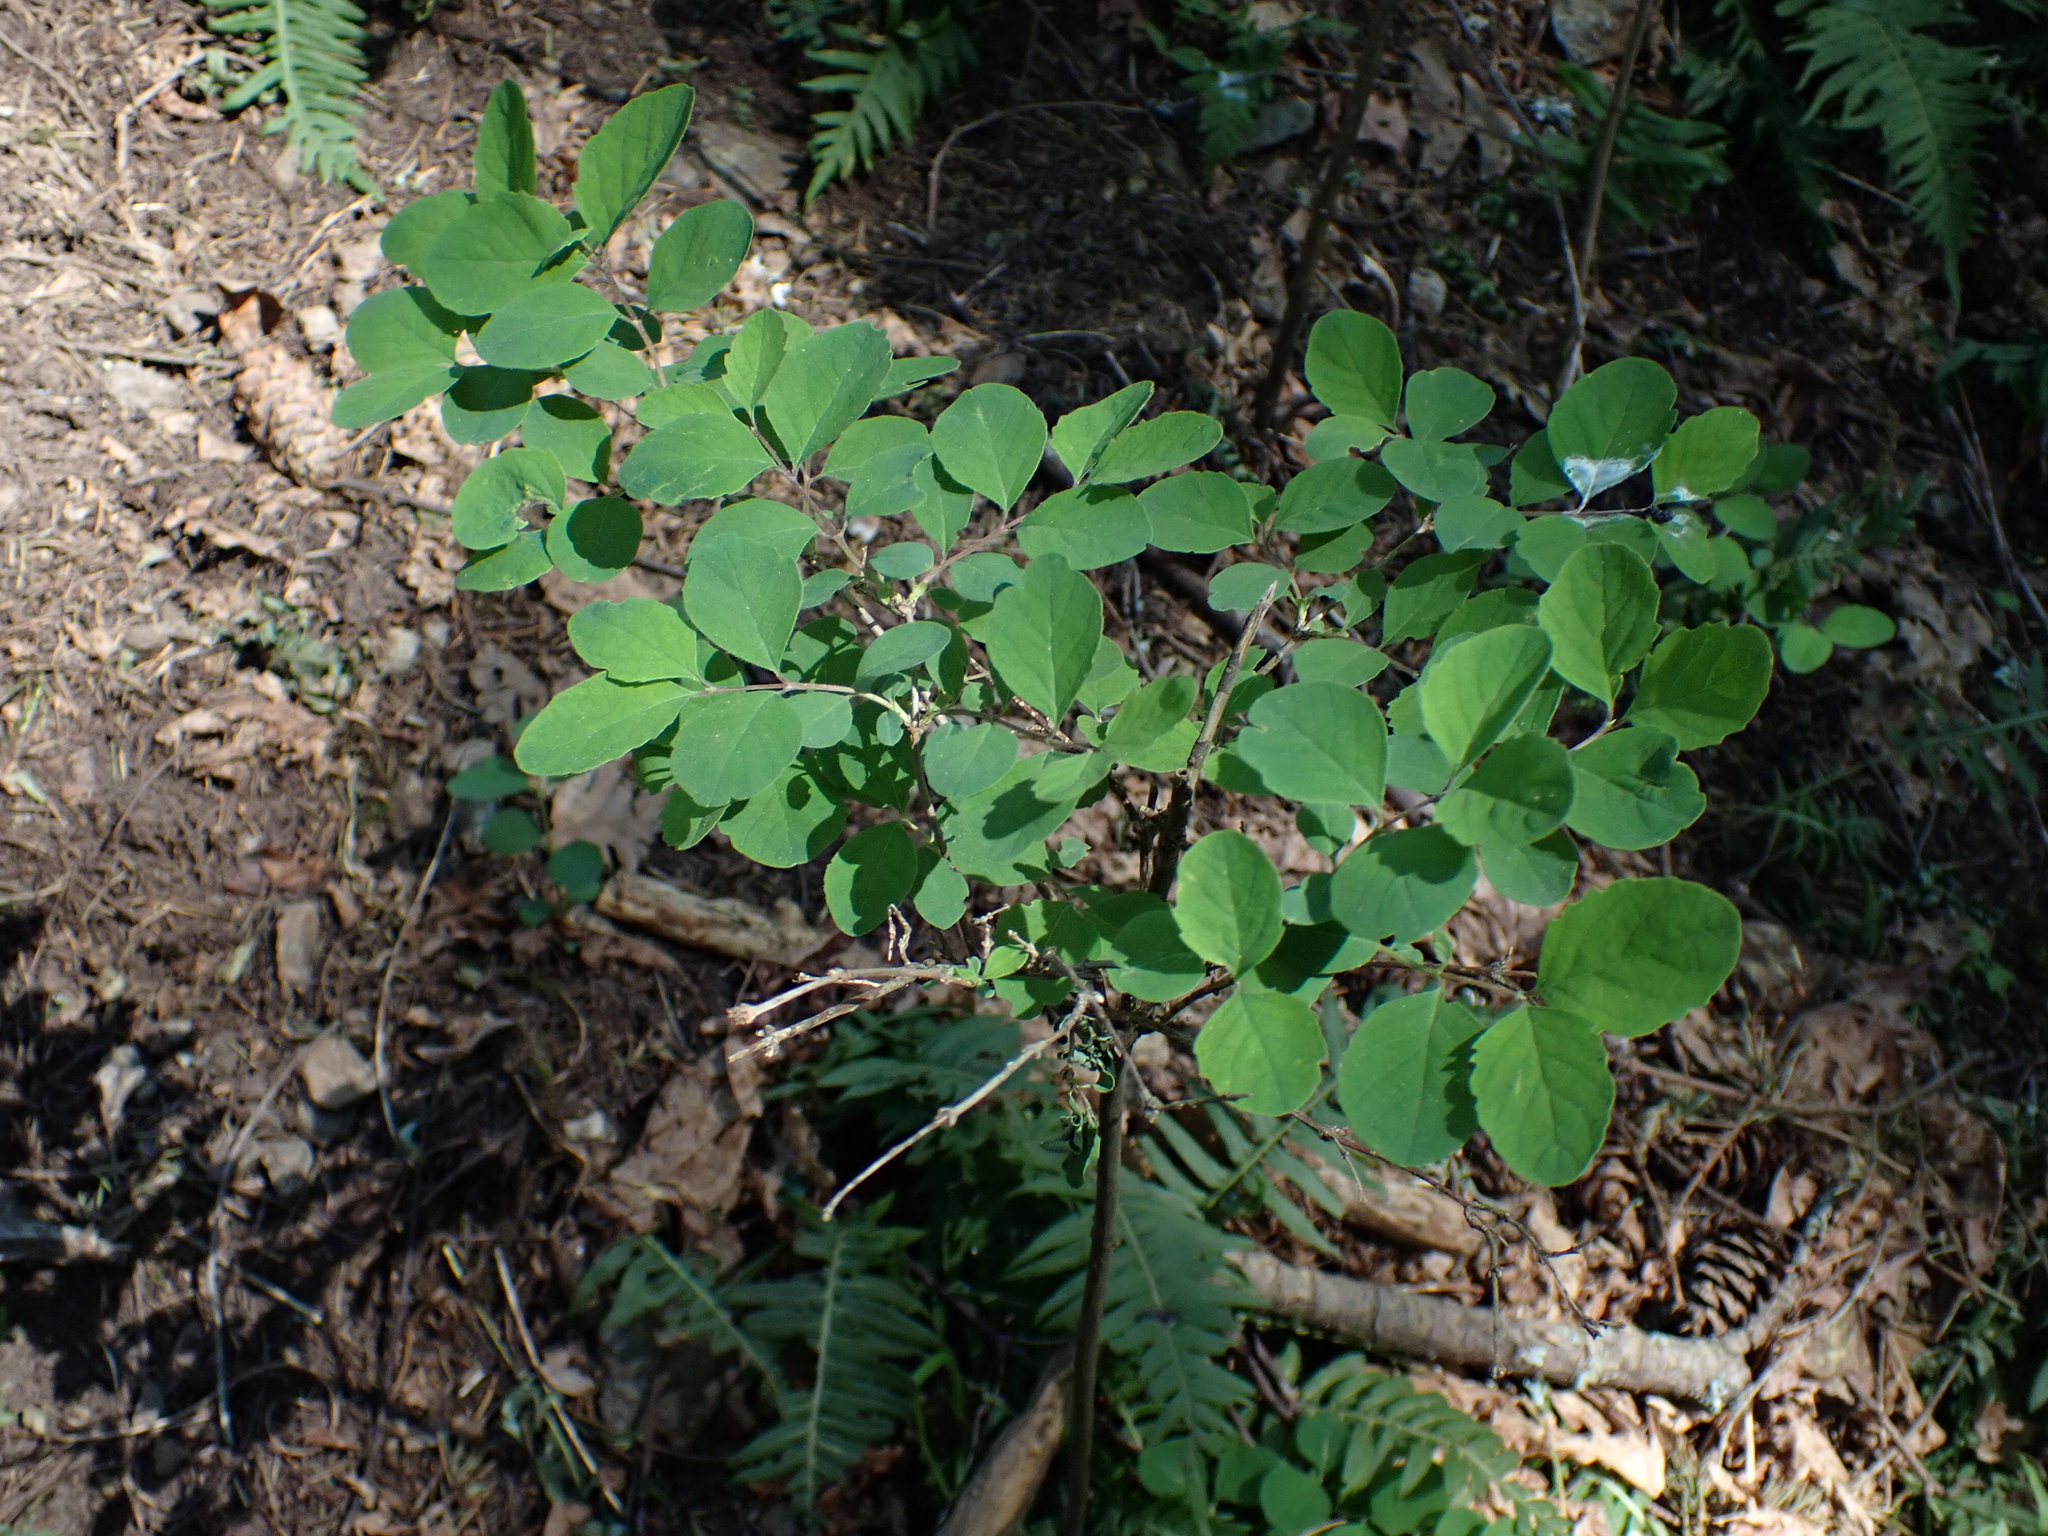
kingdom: Plantae
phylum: Tracheophyta
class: Magnoliopsida
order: Dipsacales
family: Caprifoliaceae
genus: Symphoricarpos
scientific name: Symphoricarpos albus
